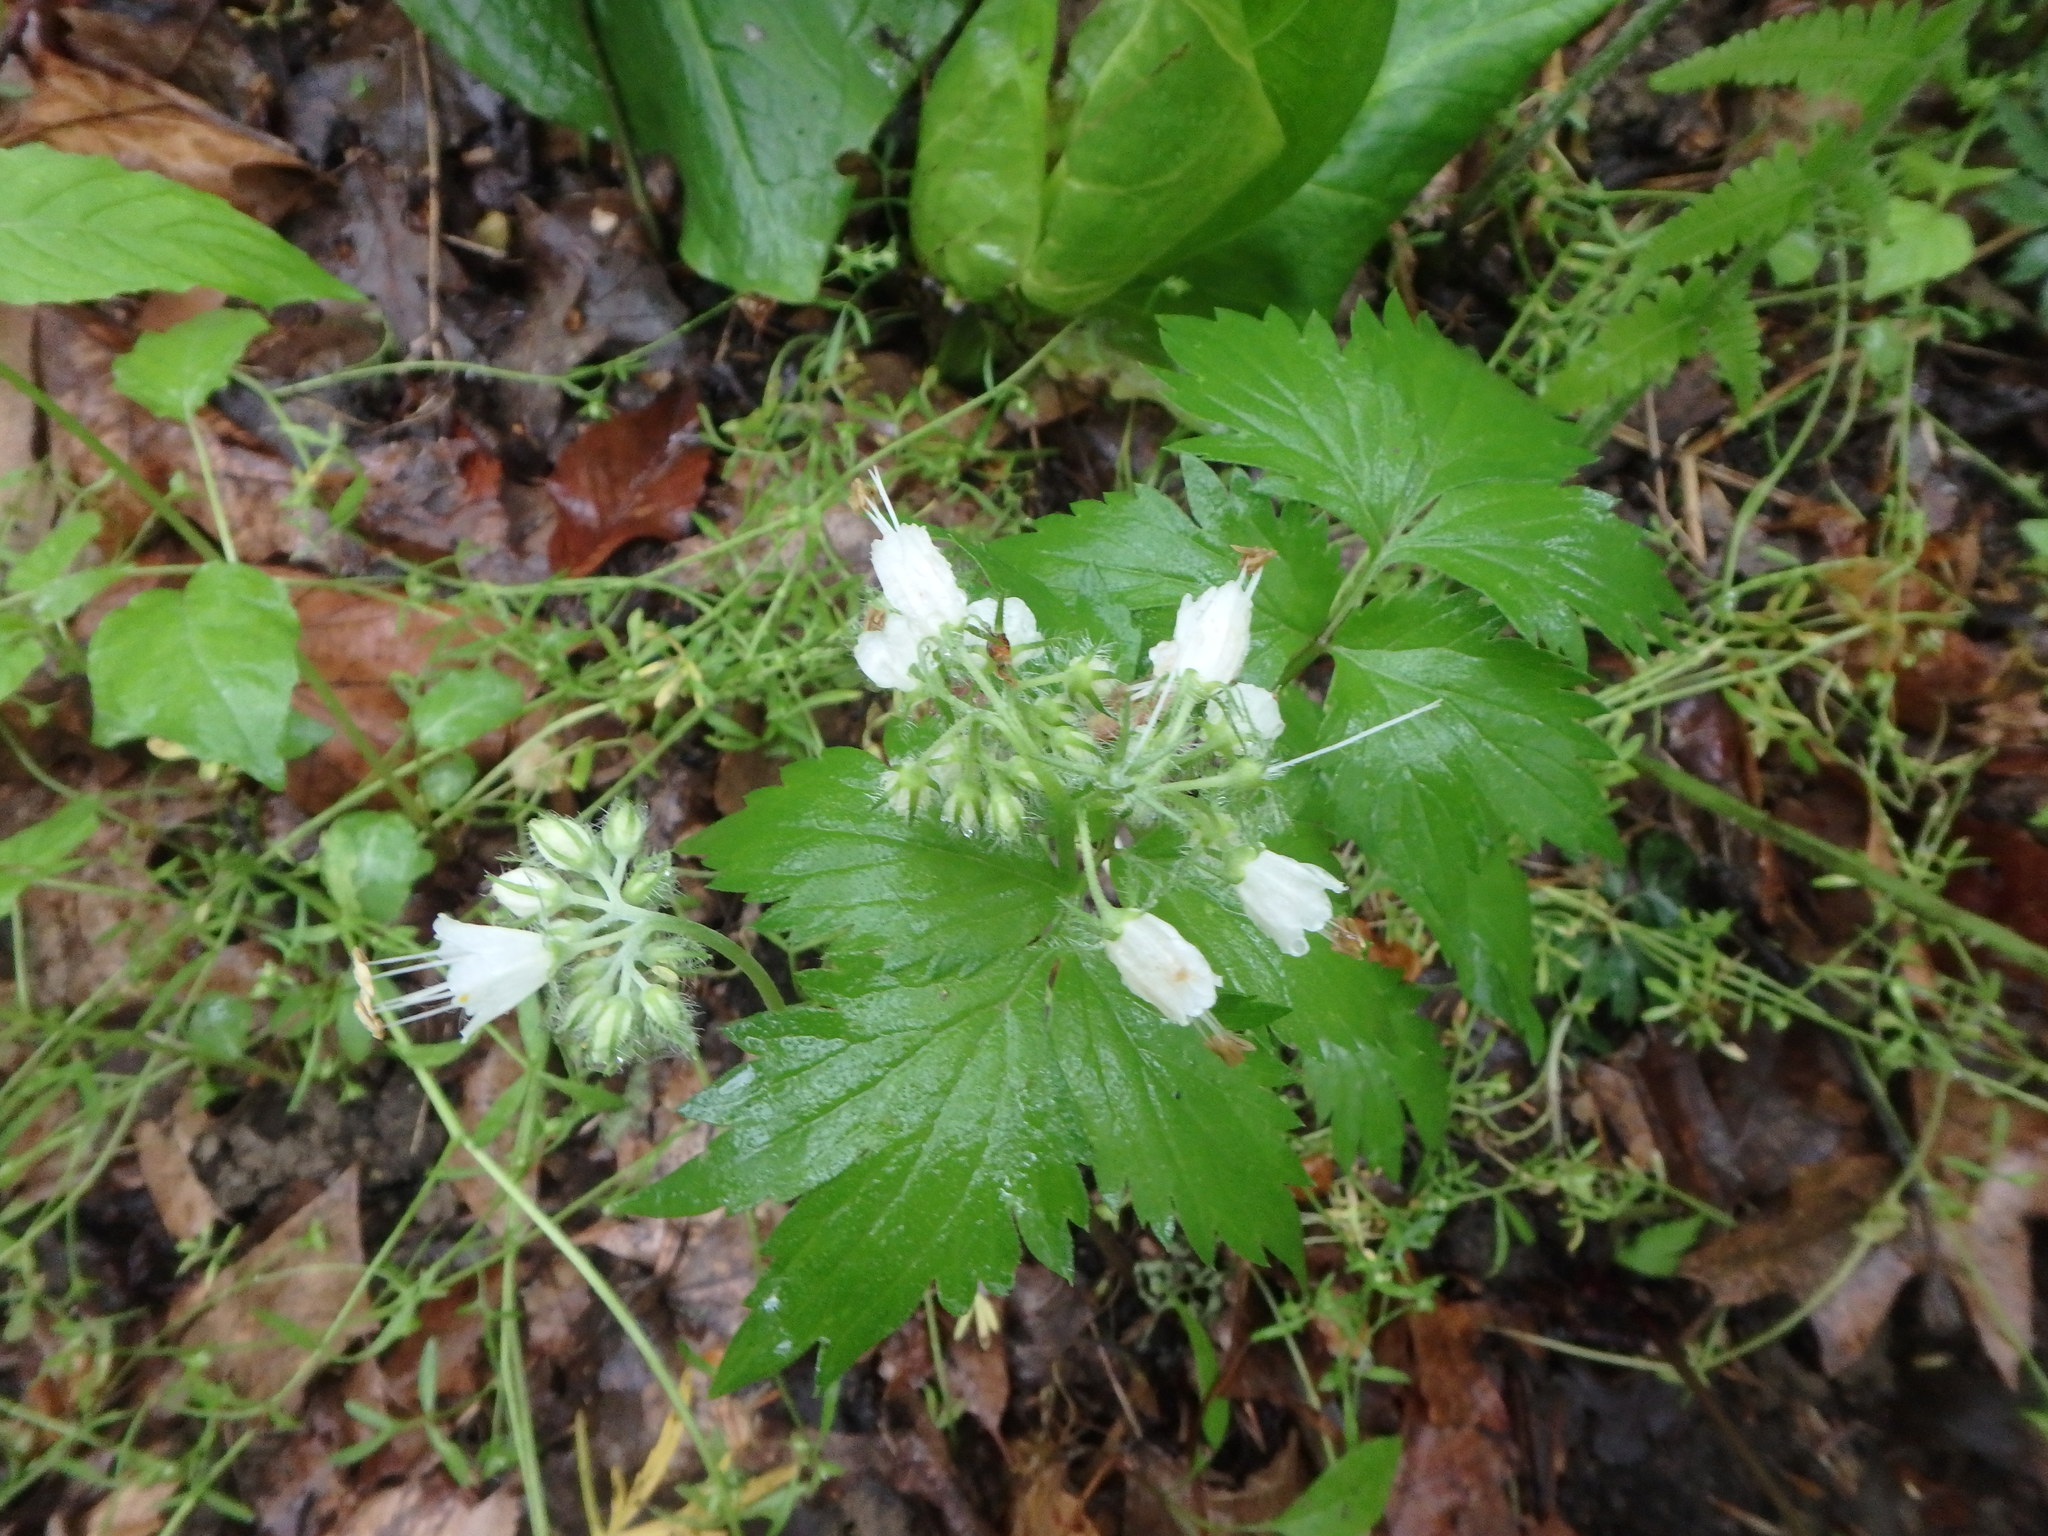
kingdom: Plantae
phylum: Tracheophyta
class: Magnoliopsida
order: Boraginales
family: Hydrophyllaceae
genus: Hydrophyllum
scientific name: Hydrophyllum virginianum
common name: Virginia waterleaf
